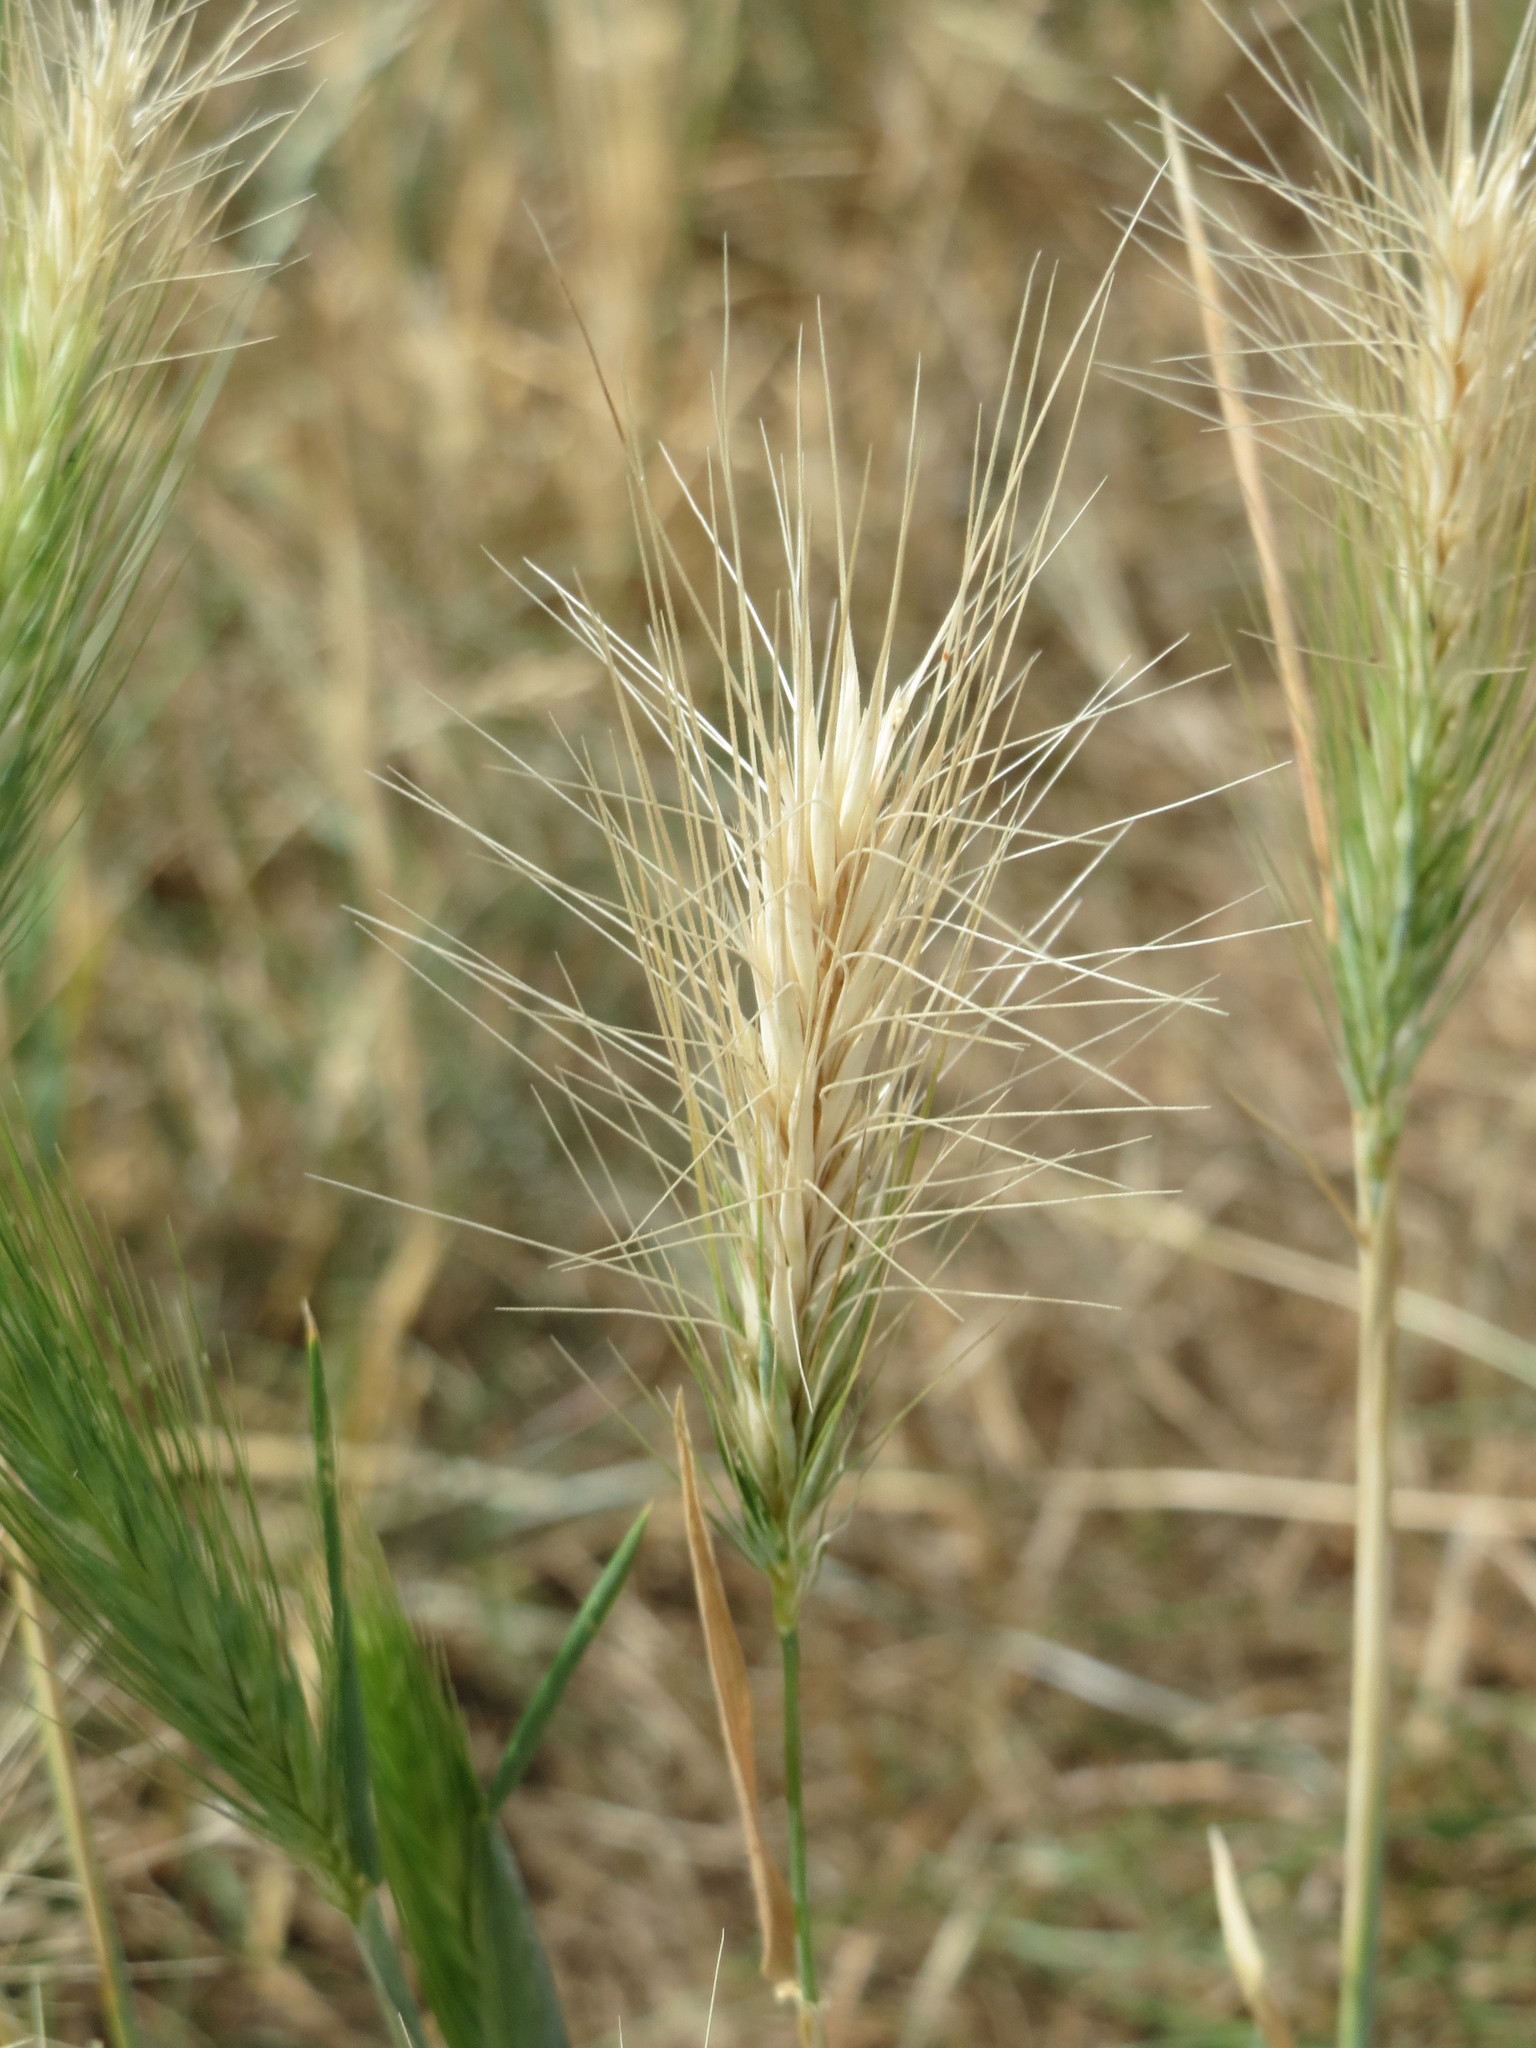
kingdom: Plantae
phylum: Tracheophyta
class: Liliopsida
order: Poales
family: Poaceae
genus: Hordeum
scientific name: Hordeum murinum
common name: Wall barley
